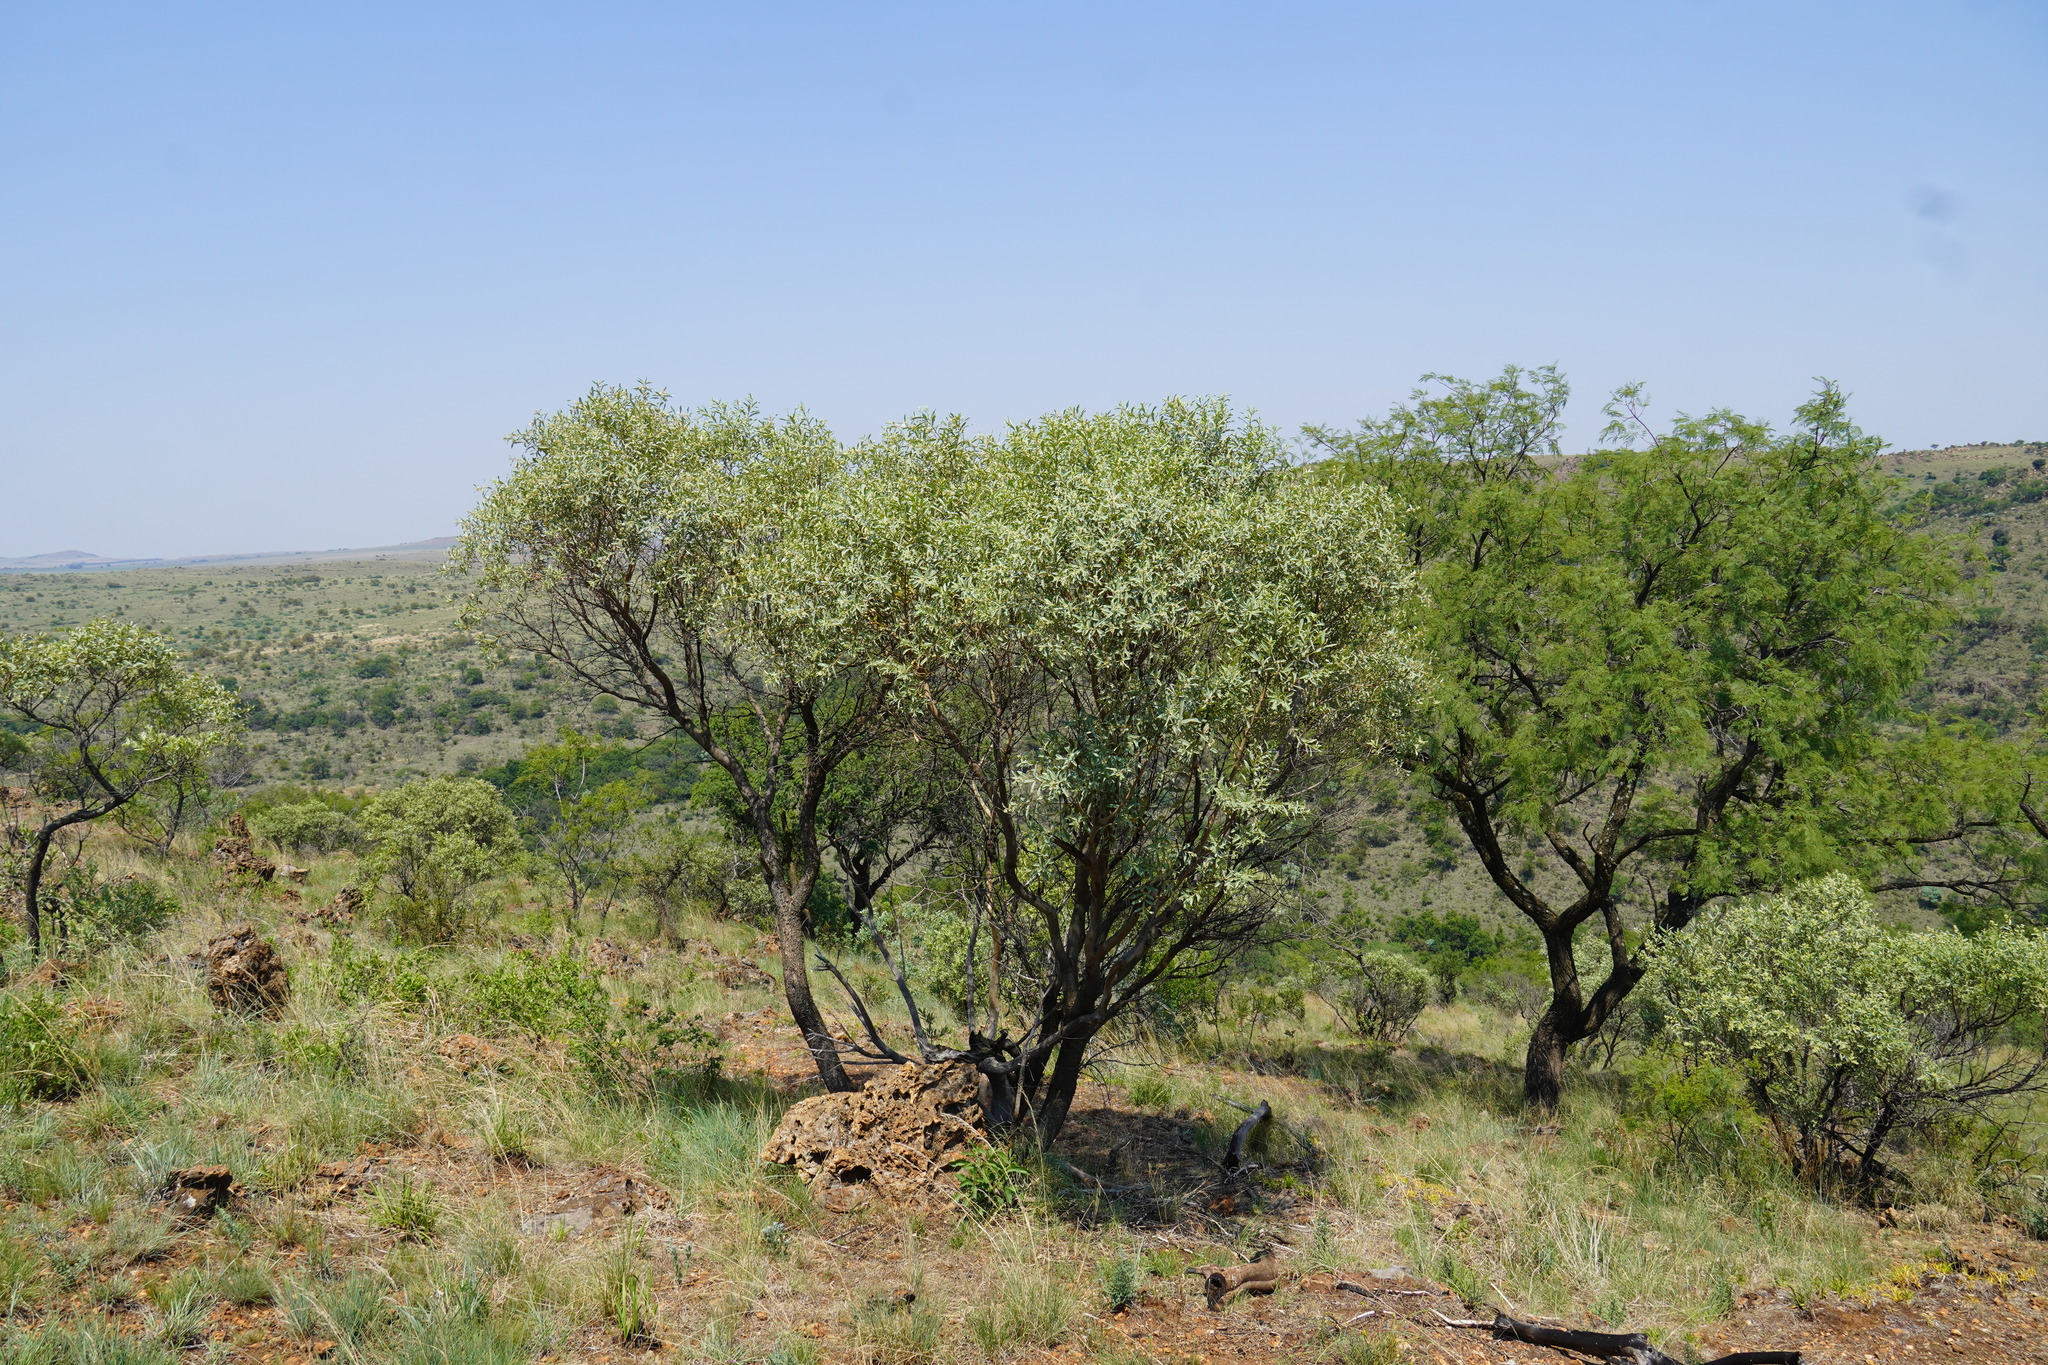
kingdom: Plantae
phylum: Tracheophyta
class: Magnoliopsida
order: Sapindales
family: Anacardiaceae
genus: Ozoroa
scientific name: Ozoroa paniculosa
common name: Bushveld ozoroa
